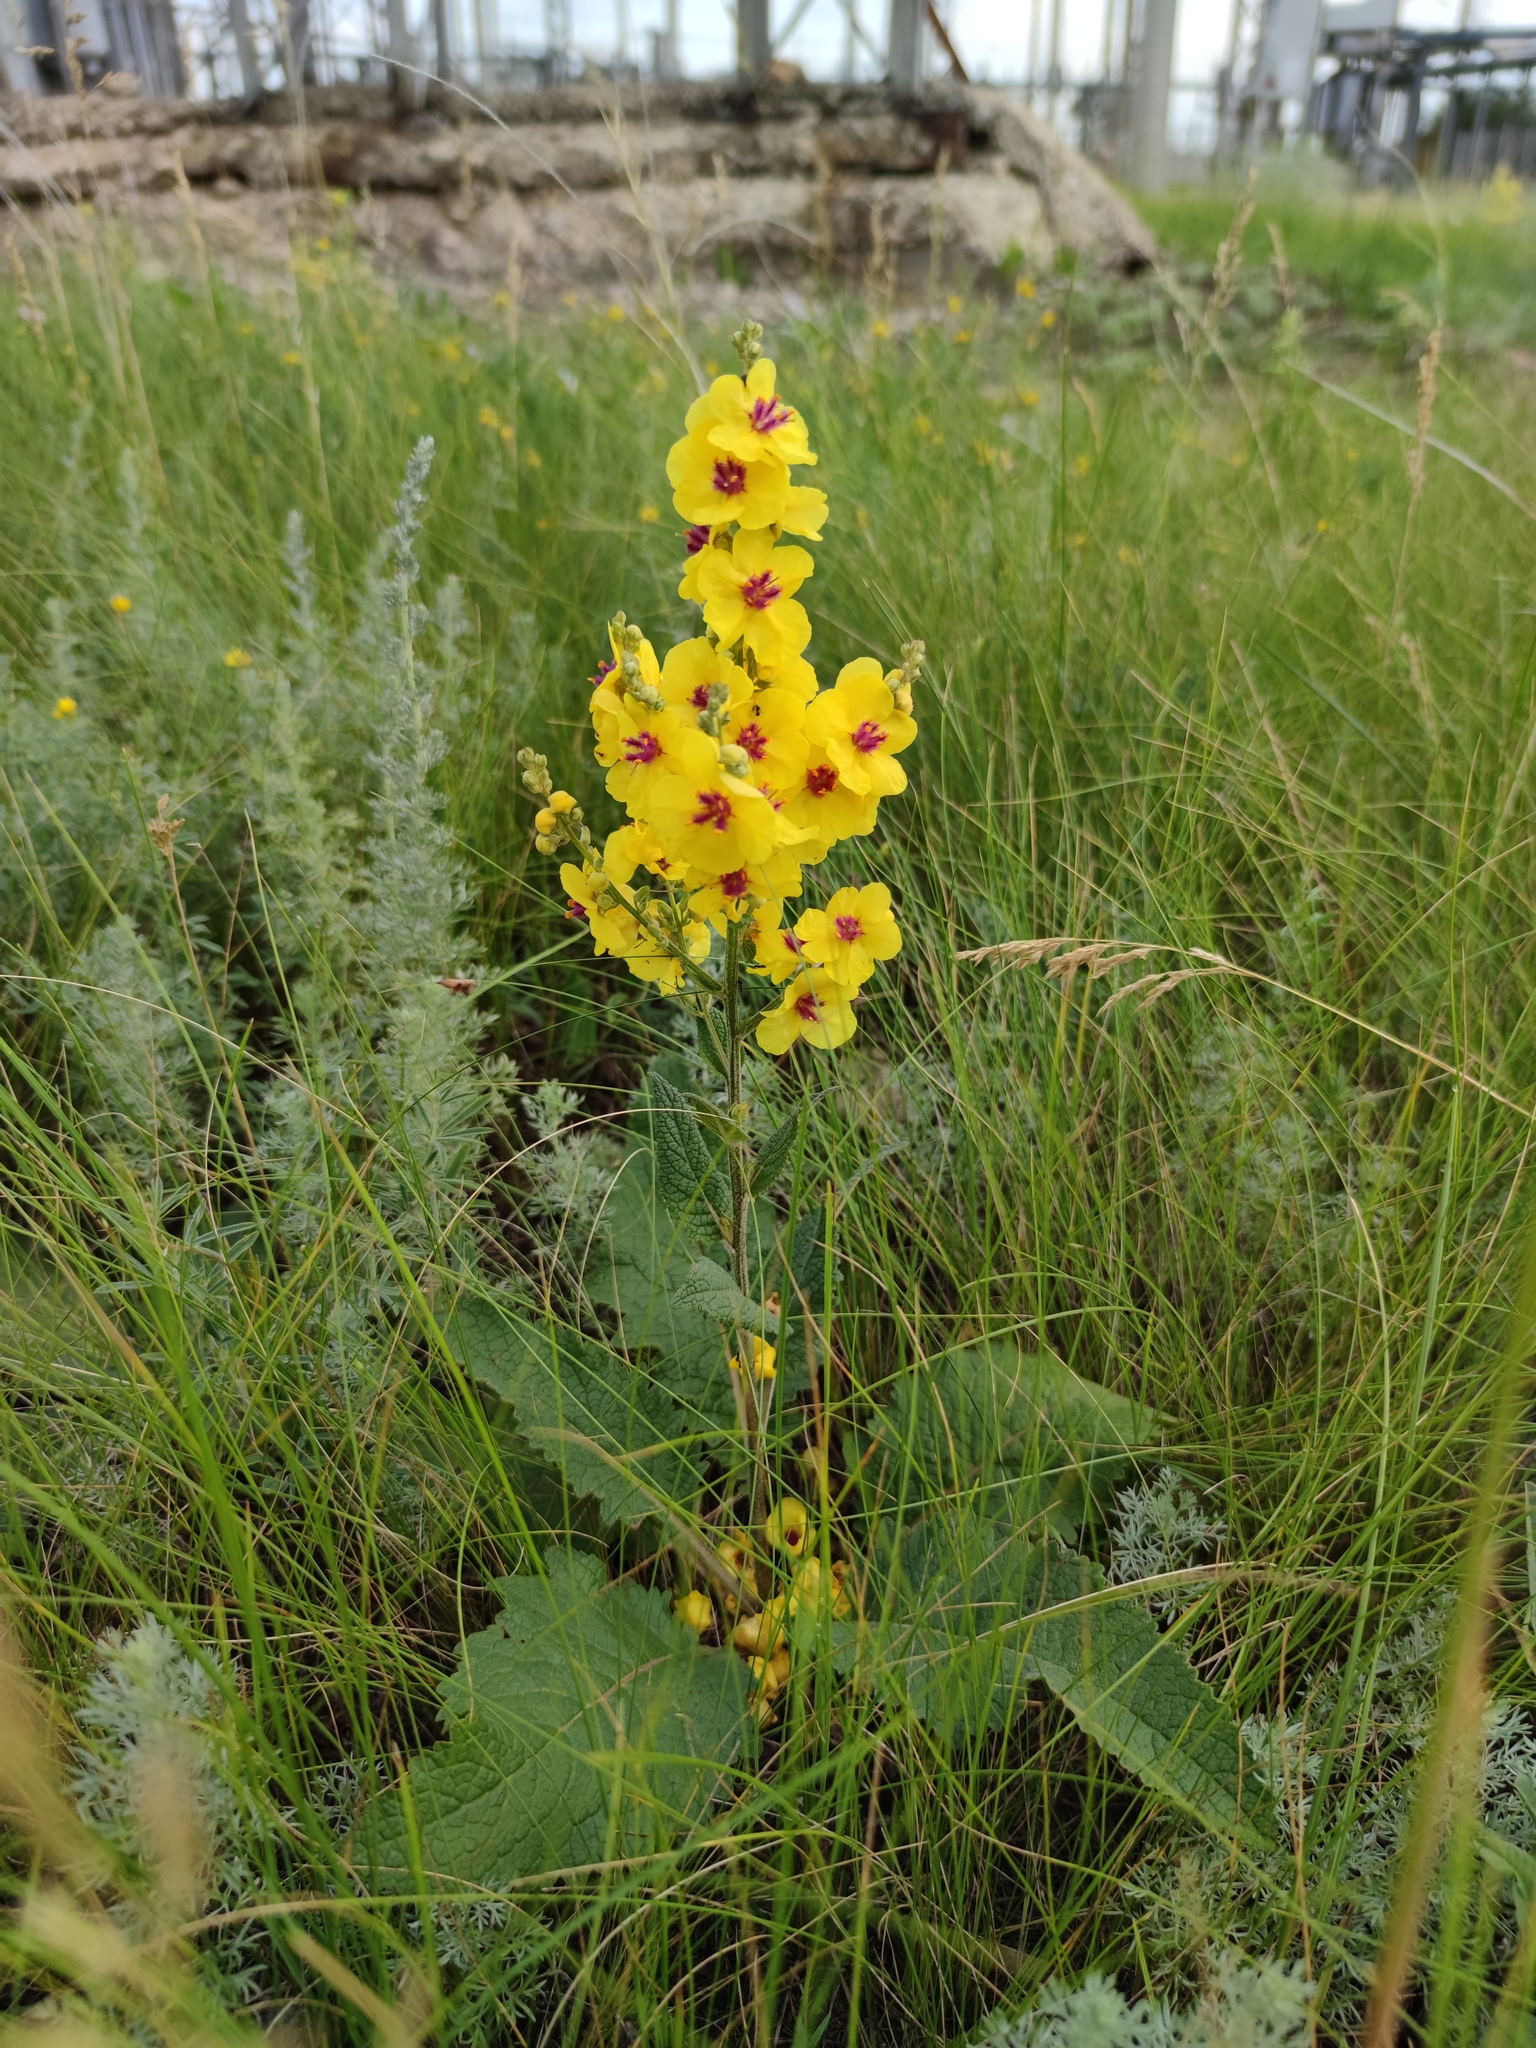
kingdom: Plantae
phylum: Tracheophyta
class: Magnoliopsida
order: Lamiales
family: Scrophulariaceae
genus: Verbascum
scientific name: Verbascum chaixii
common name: Nettle-leaved mullein
